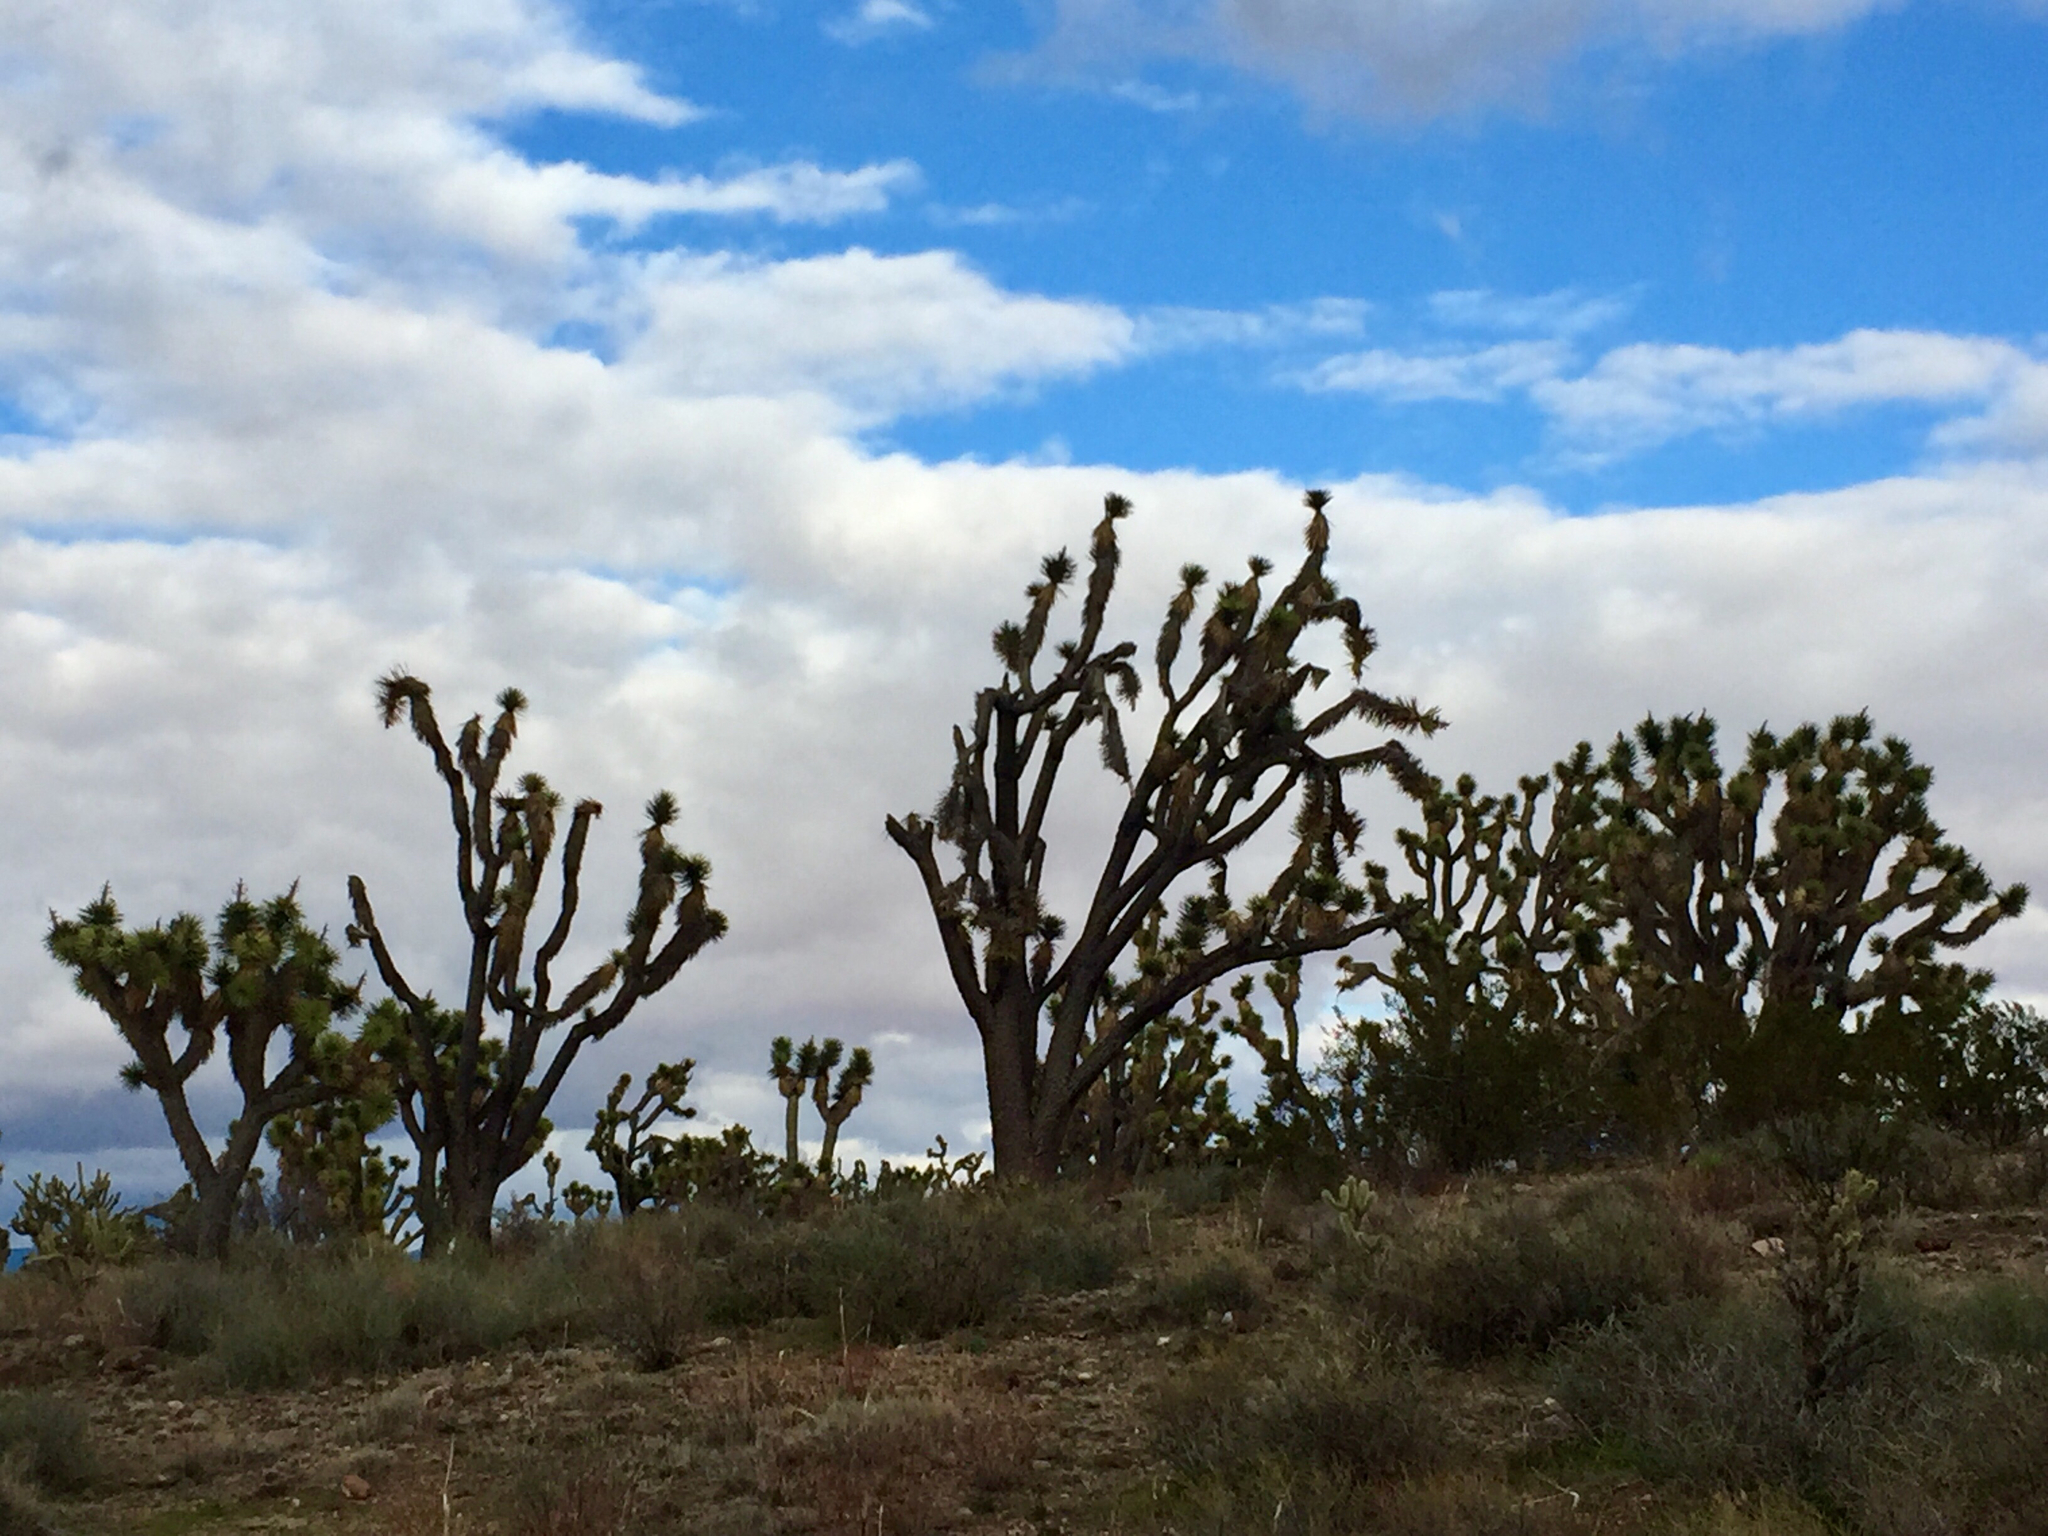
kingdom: Plantae
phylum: Tracheophyta
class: Liliopsida
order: Asparagales
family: Asparagaceae
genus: Yucca
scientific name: Yucca brevifolia
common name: Joshua tree
